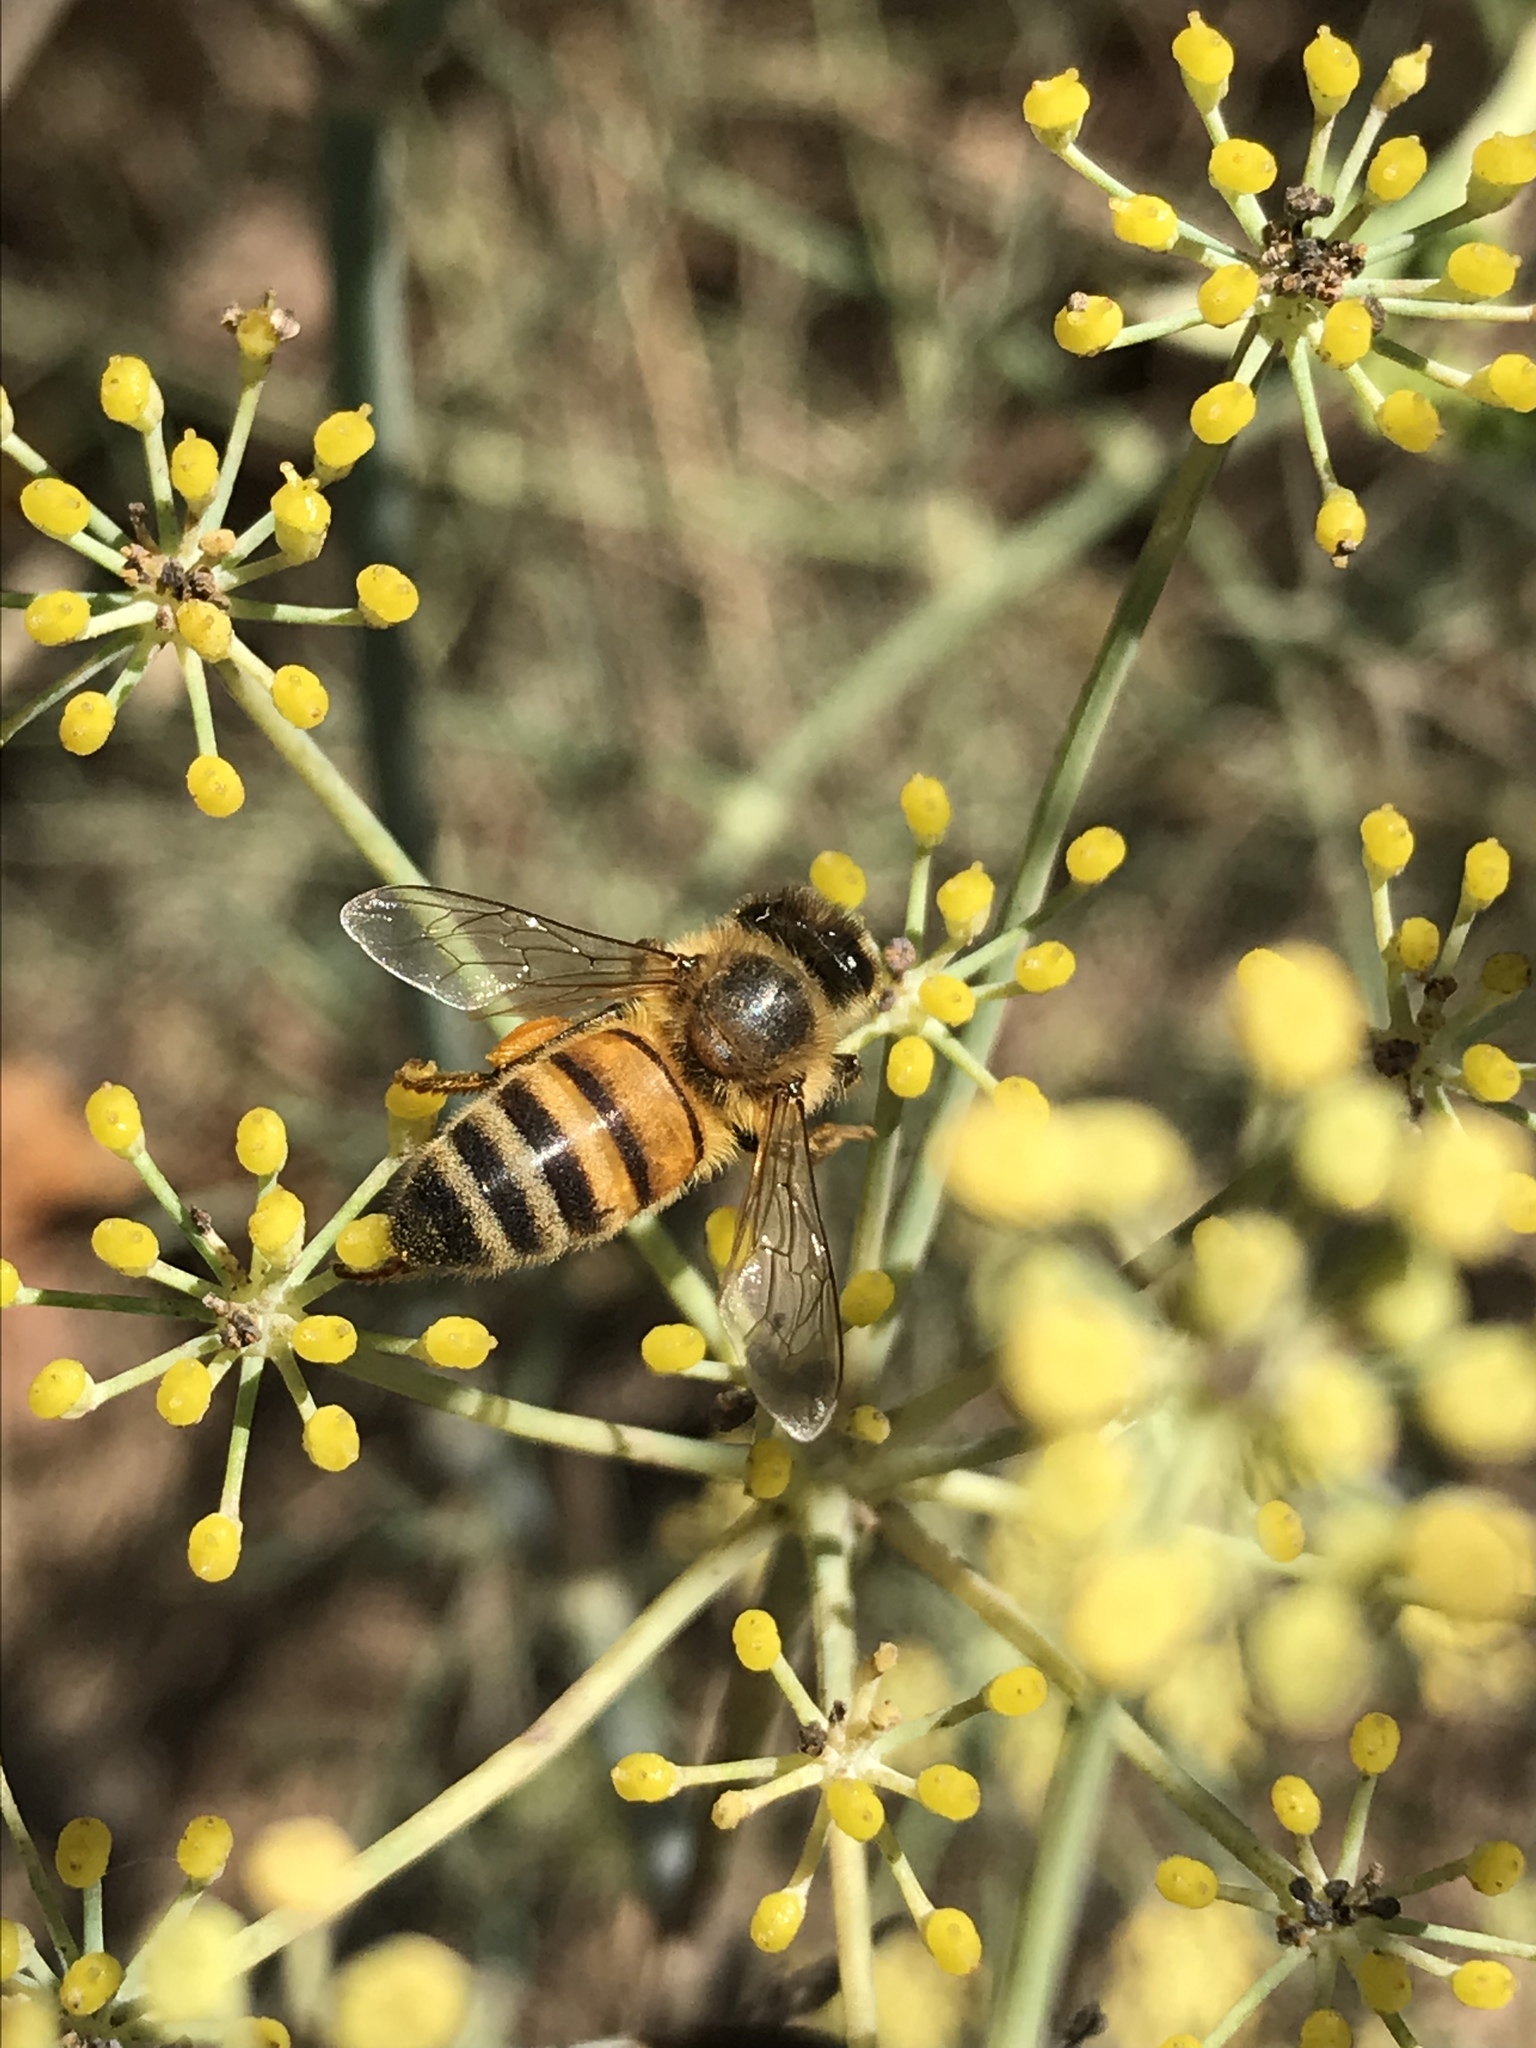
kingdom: Animalia
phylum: Arthropoda
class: Insecta
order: Hymenoptera
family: Apidae
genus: Apis
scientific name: Apis mellifera
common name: Honey bee
